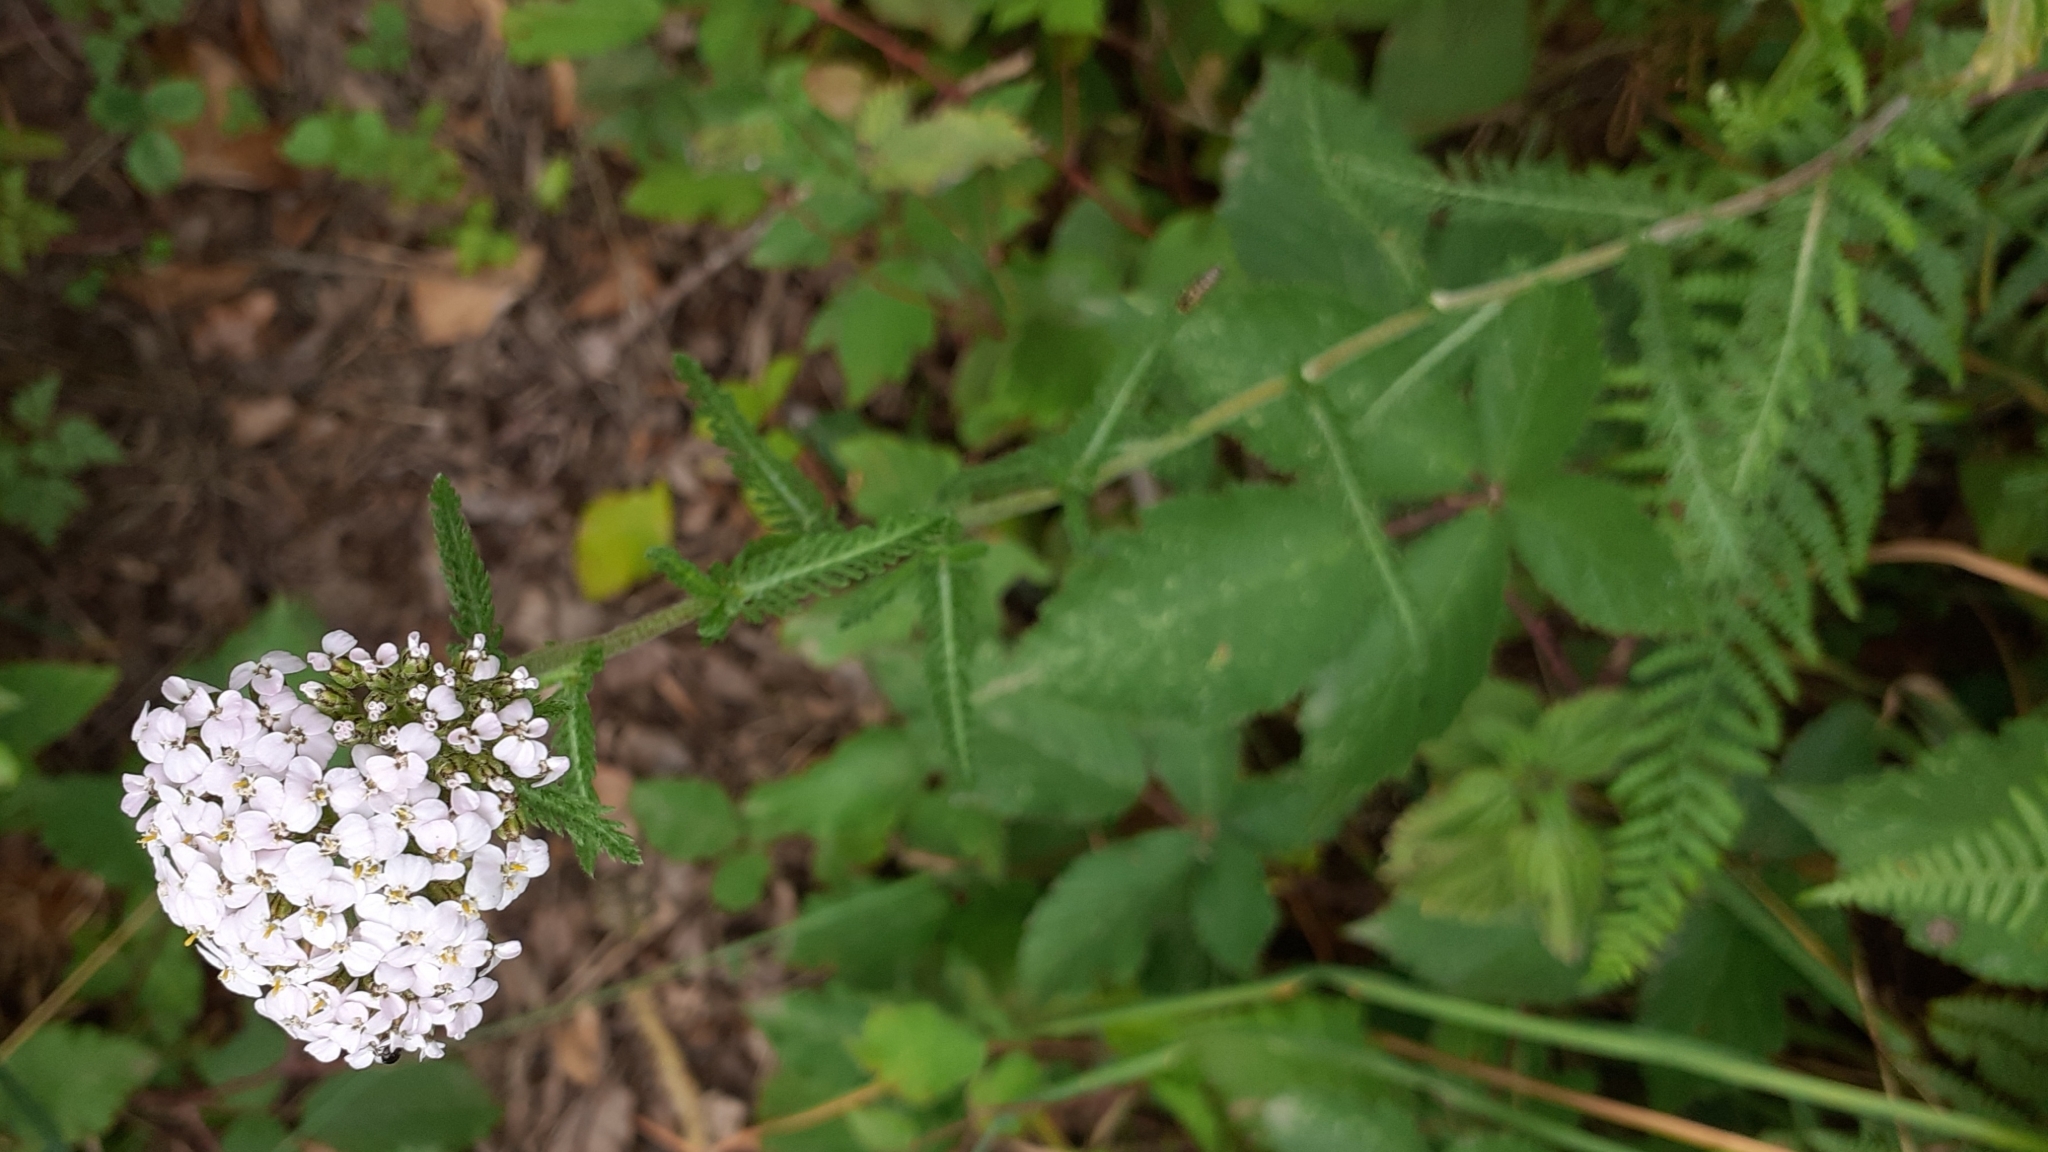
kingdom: Plantae
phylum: Tracheophyta
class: Magnoliopsida
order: Asterales
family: Asteraceae
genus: Achillea
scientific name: Achillea millefolium
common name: Yarrow
